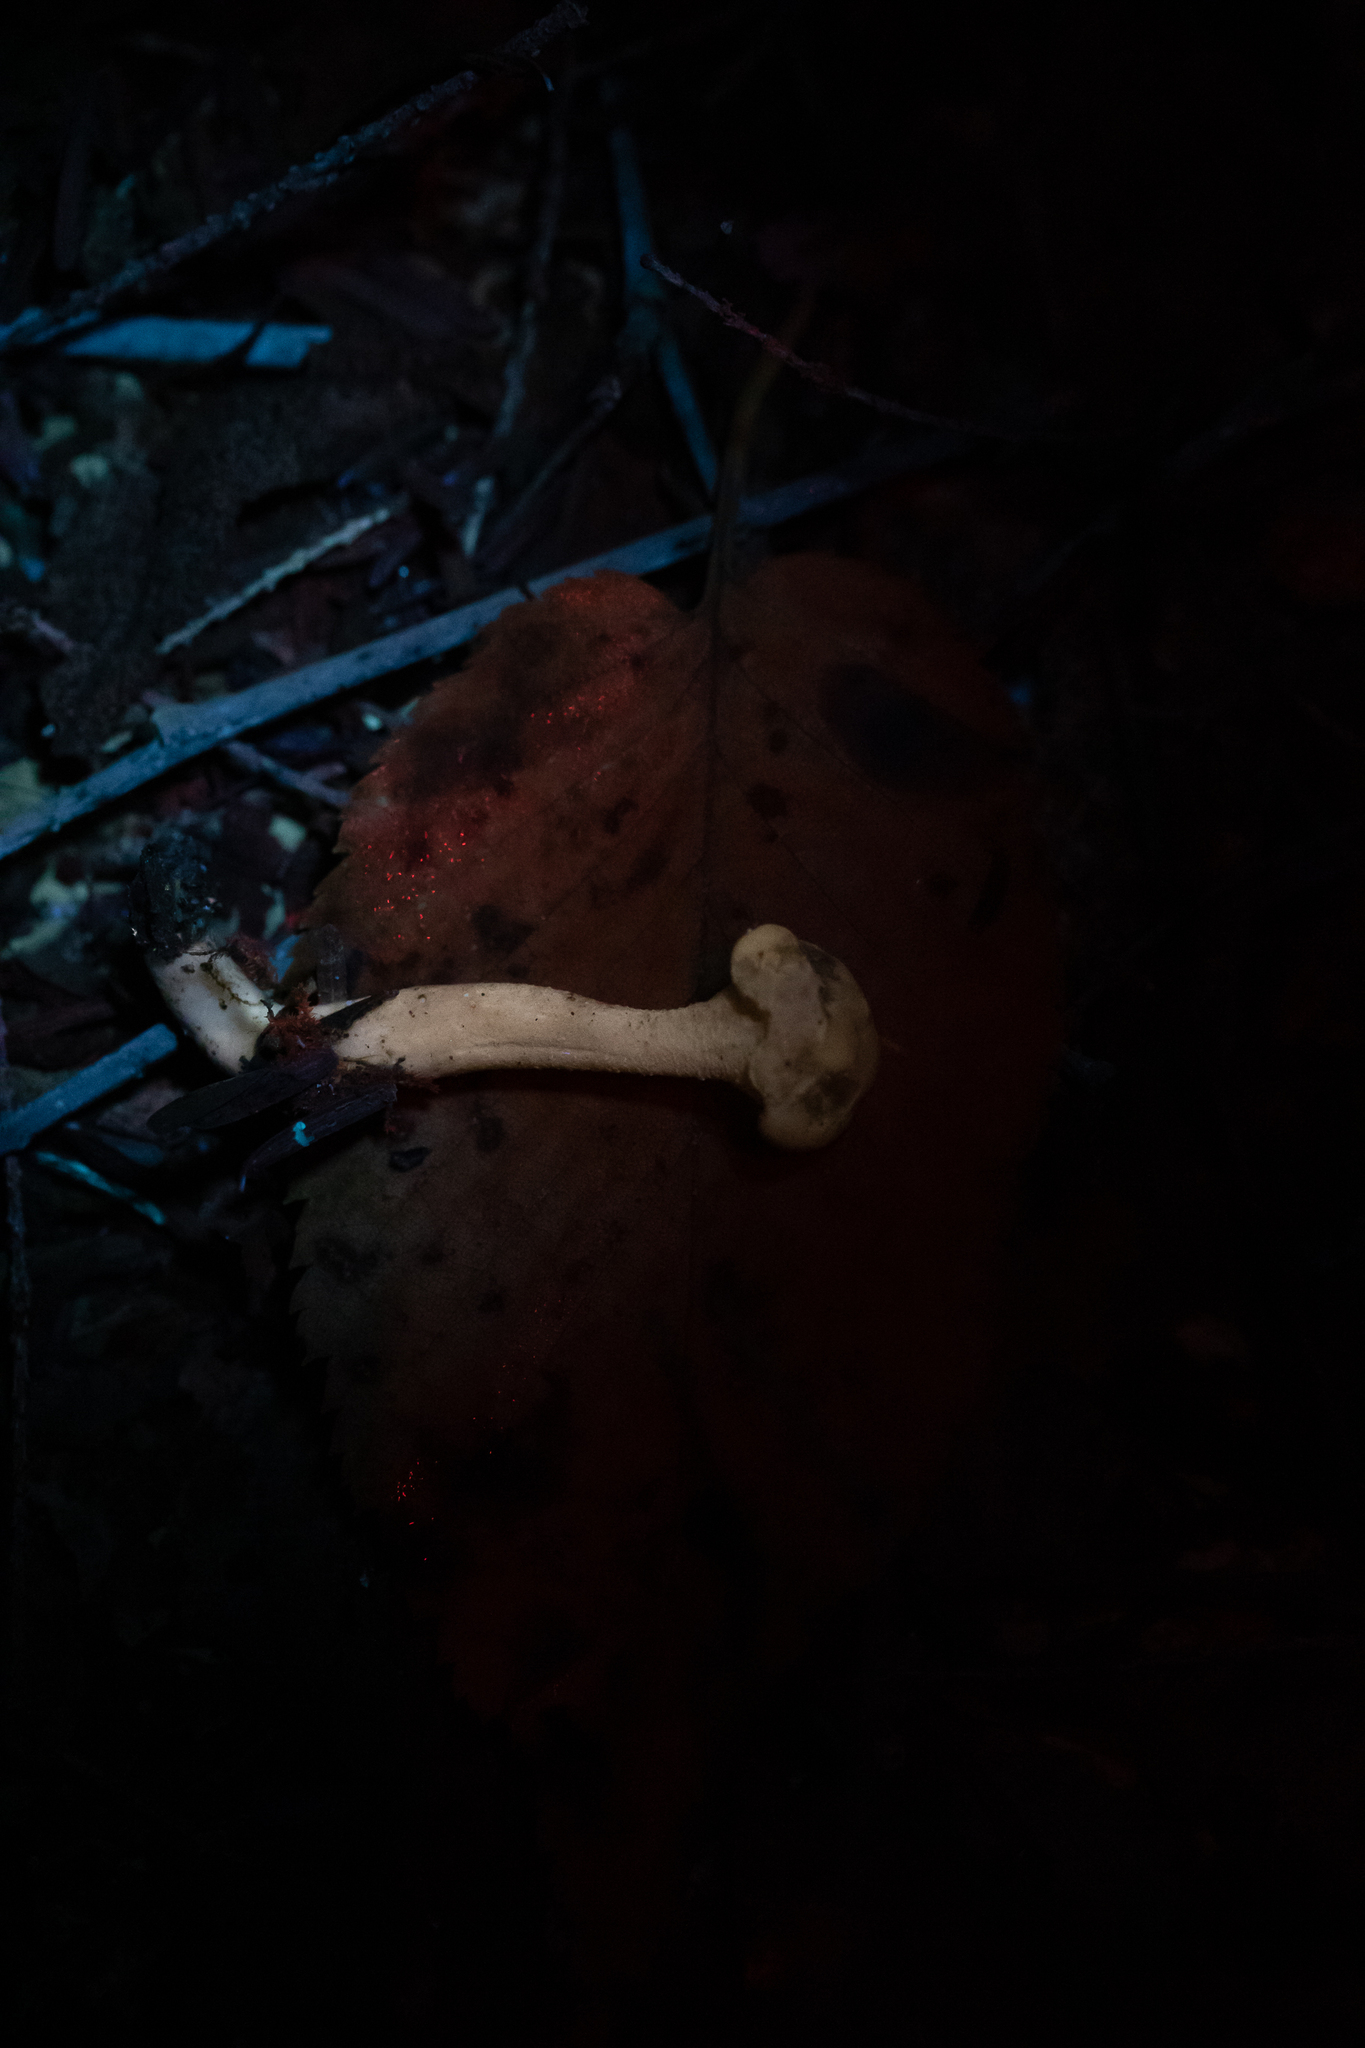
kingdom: Fungi
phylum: Ascomycota
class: Leotiomycetes
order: Leotiales
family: Leotiaceae
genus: Leotia
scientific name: Leotia lubrica
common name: Jellybaby
